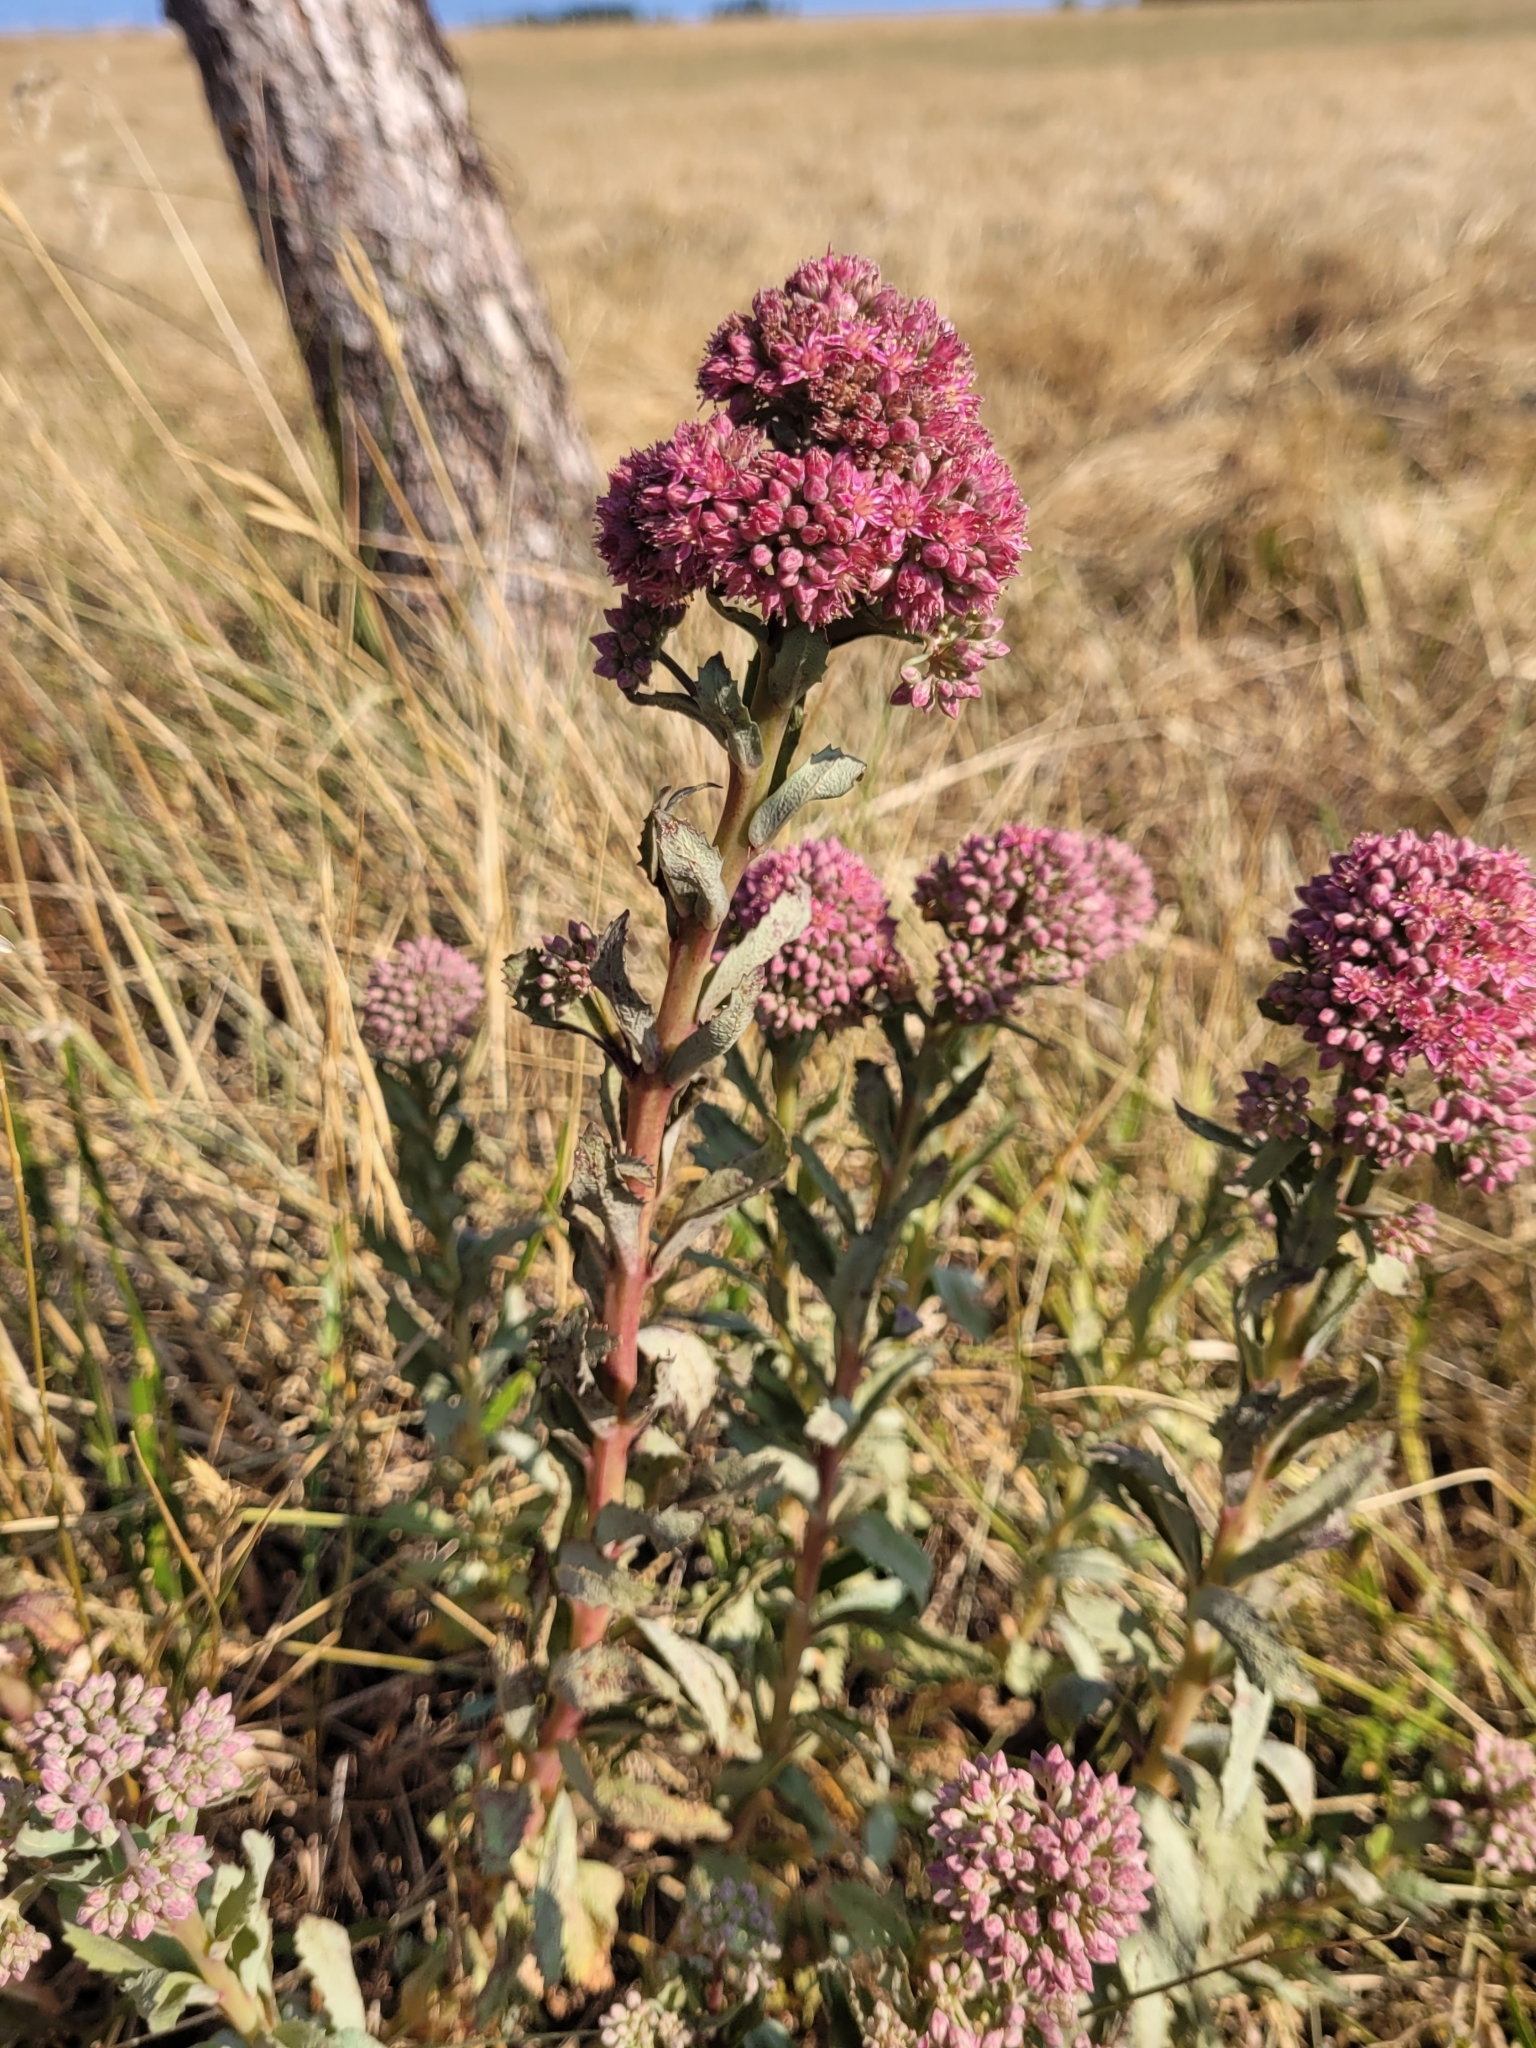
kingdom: Plantae
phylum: Tracheophyta
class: Magnoliopsida
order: Saxifragales
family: Crassulaceae
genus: Hylotelephium
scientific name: Hylotelephium telephium
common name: Live-forever
